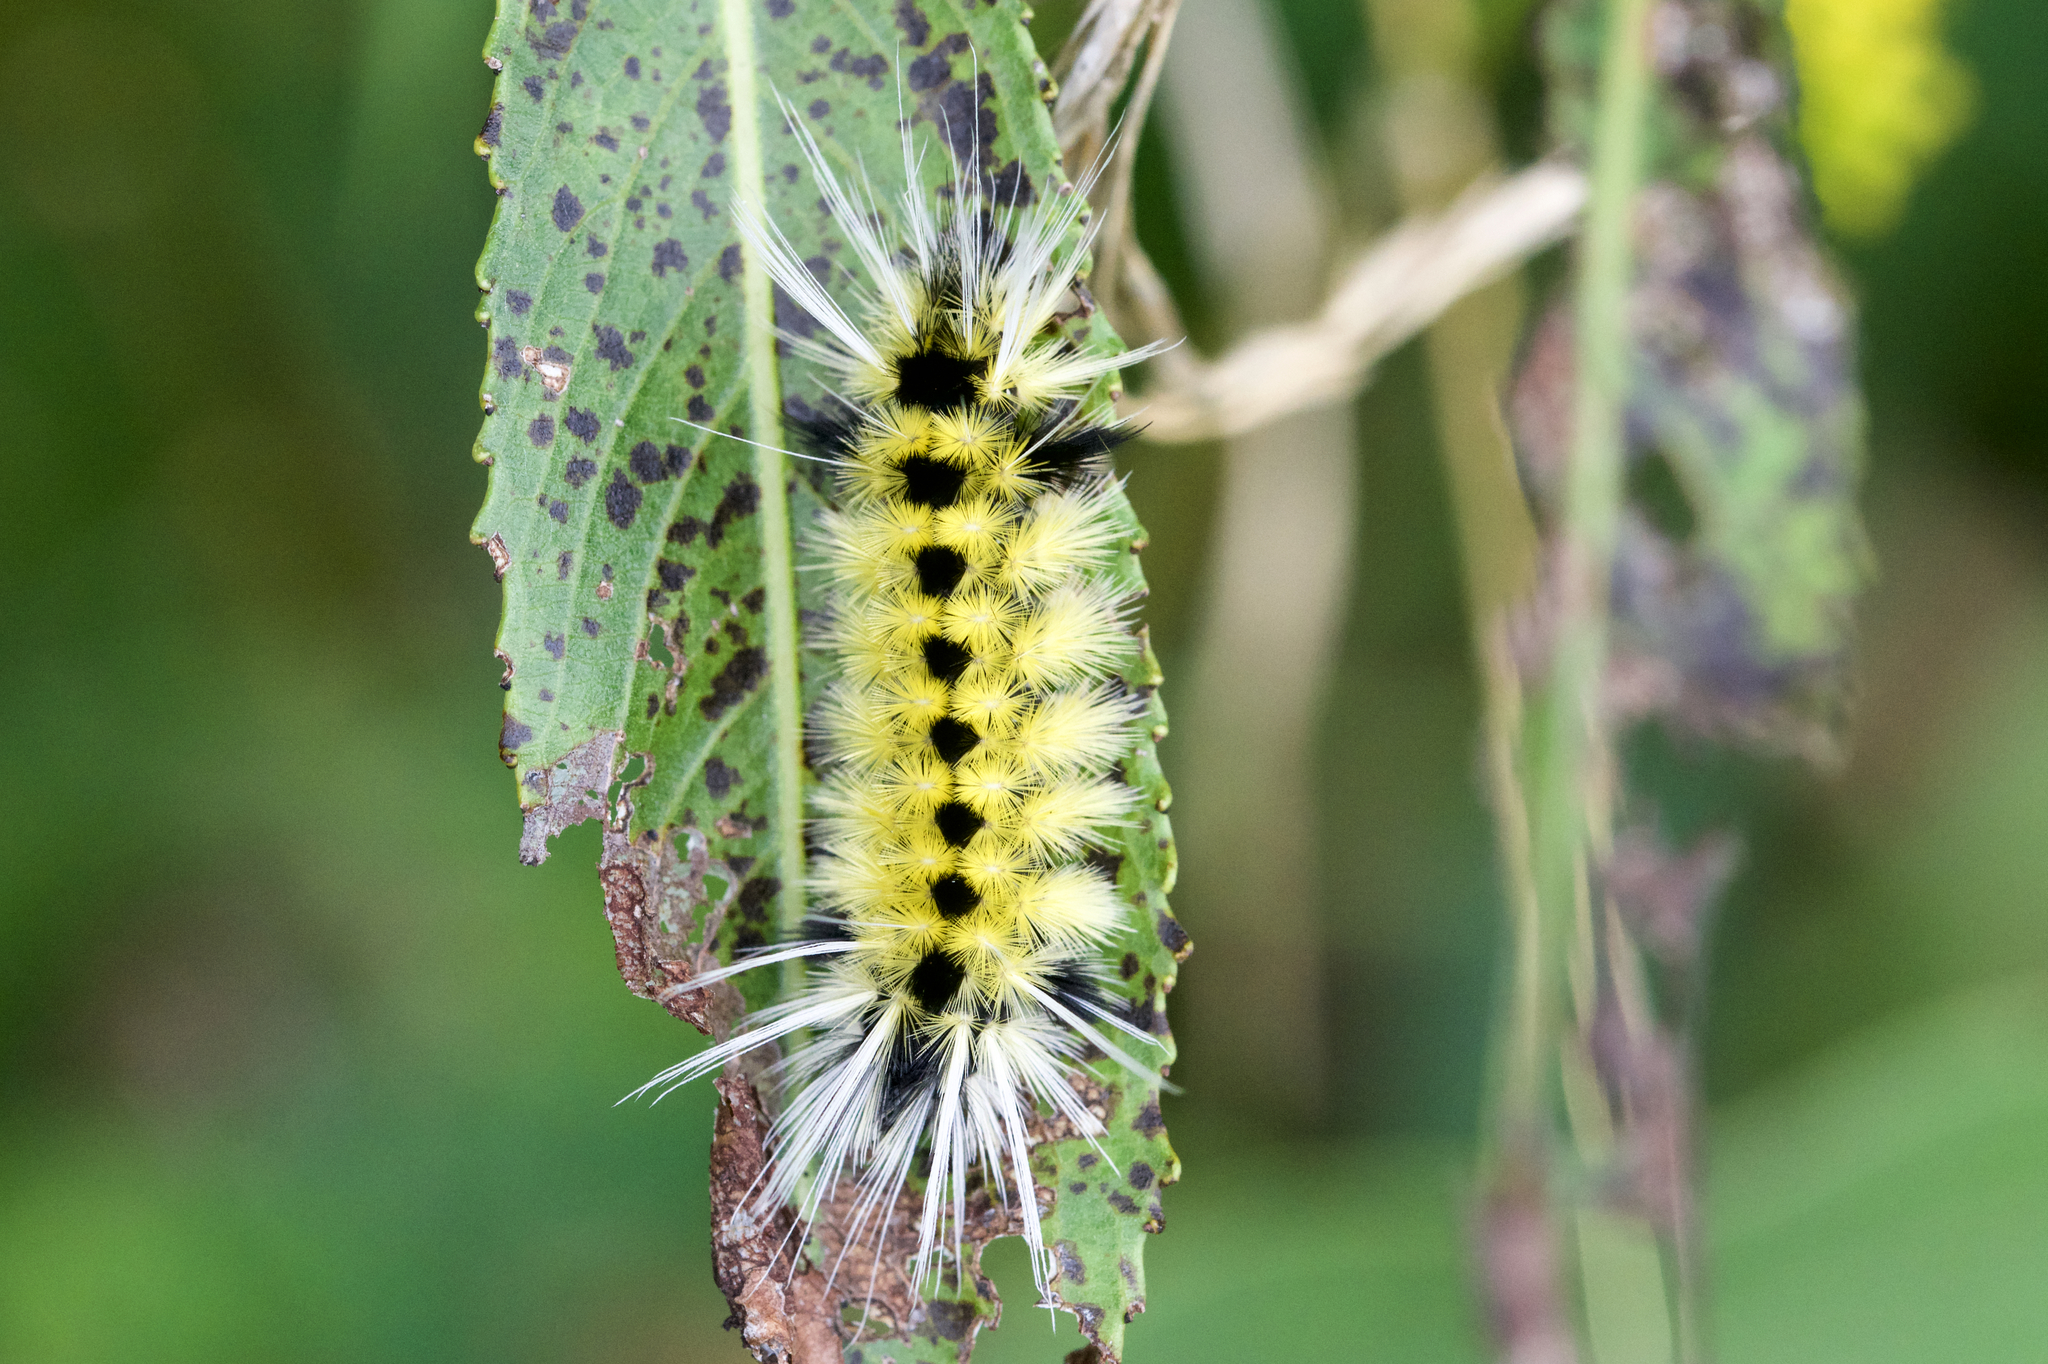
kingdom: Animalia
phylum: Arthropoda
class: Insecta
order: Lepidoptera
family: Erebidae
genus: Lophocampa
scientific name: Lophocampa maculata
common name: Spotted tussock moth
